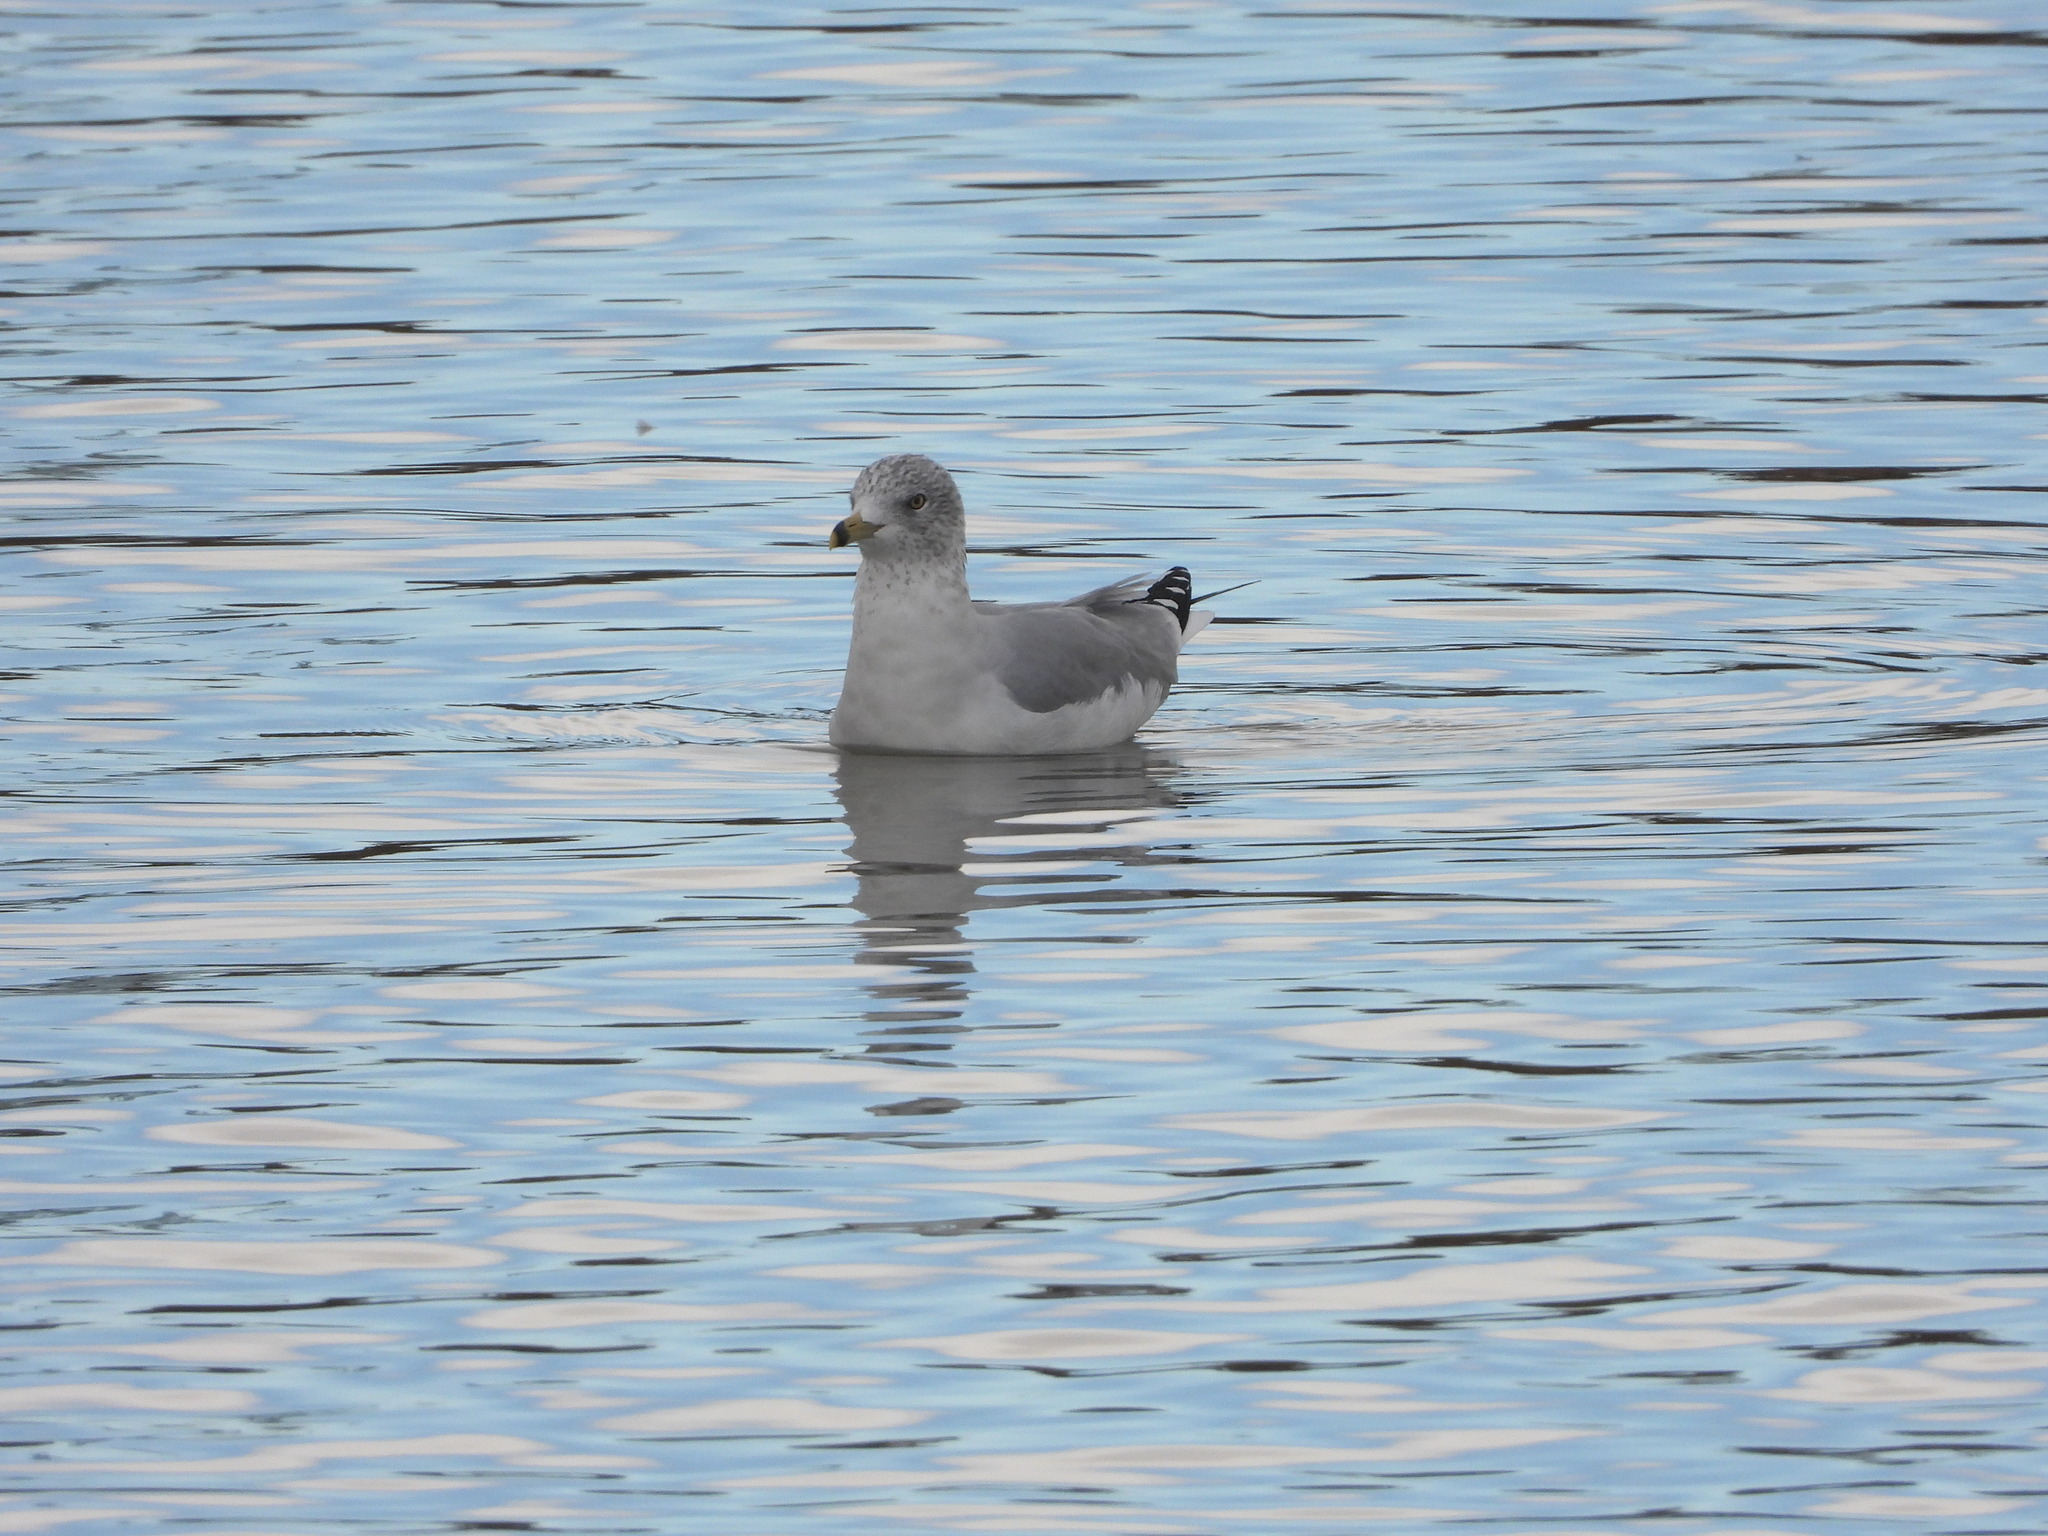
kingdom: Animalia
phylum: Chordata
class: Aves
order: Charadriiformes
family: Laridae
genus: Larus
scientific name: Larus delawarensis
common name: Ring-billed gull
